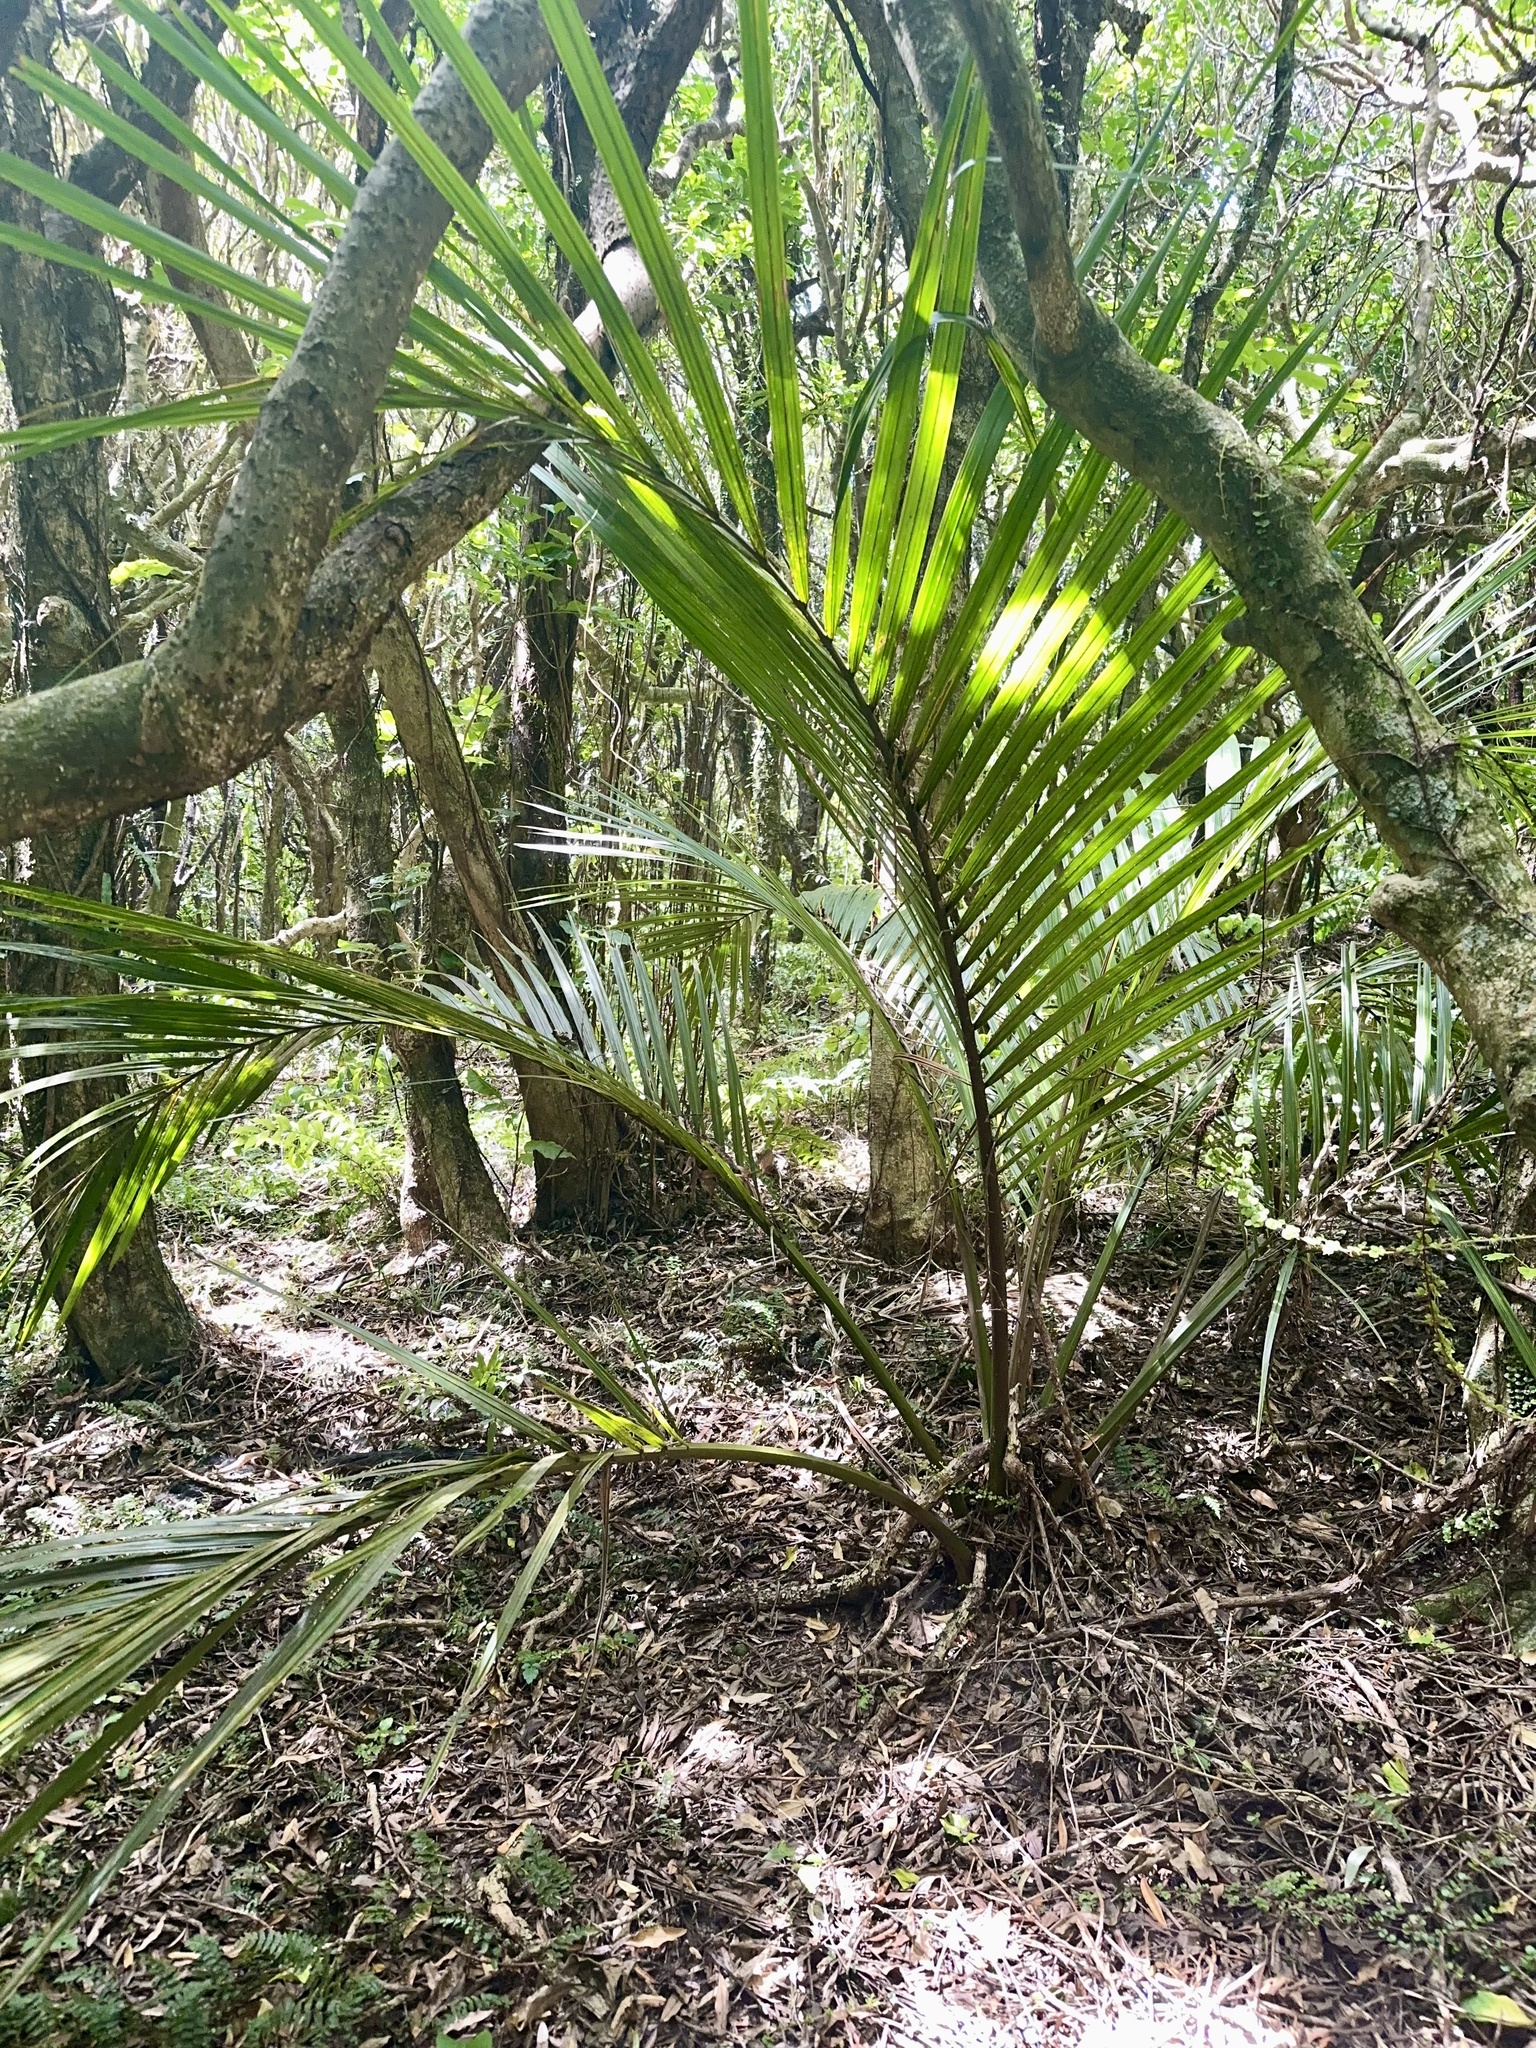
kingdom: Plantae
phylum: Tracheophyta
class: Liliopsida
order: Arecales
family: Arecaceae
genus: Rhopalostylis
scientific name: Rhopalostylis sapida
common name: Feather-duster palm
